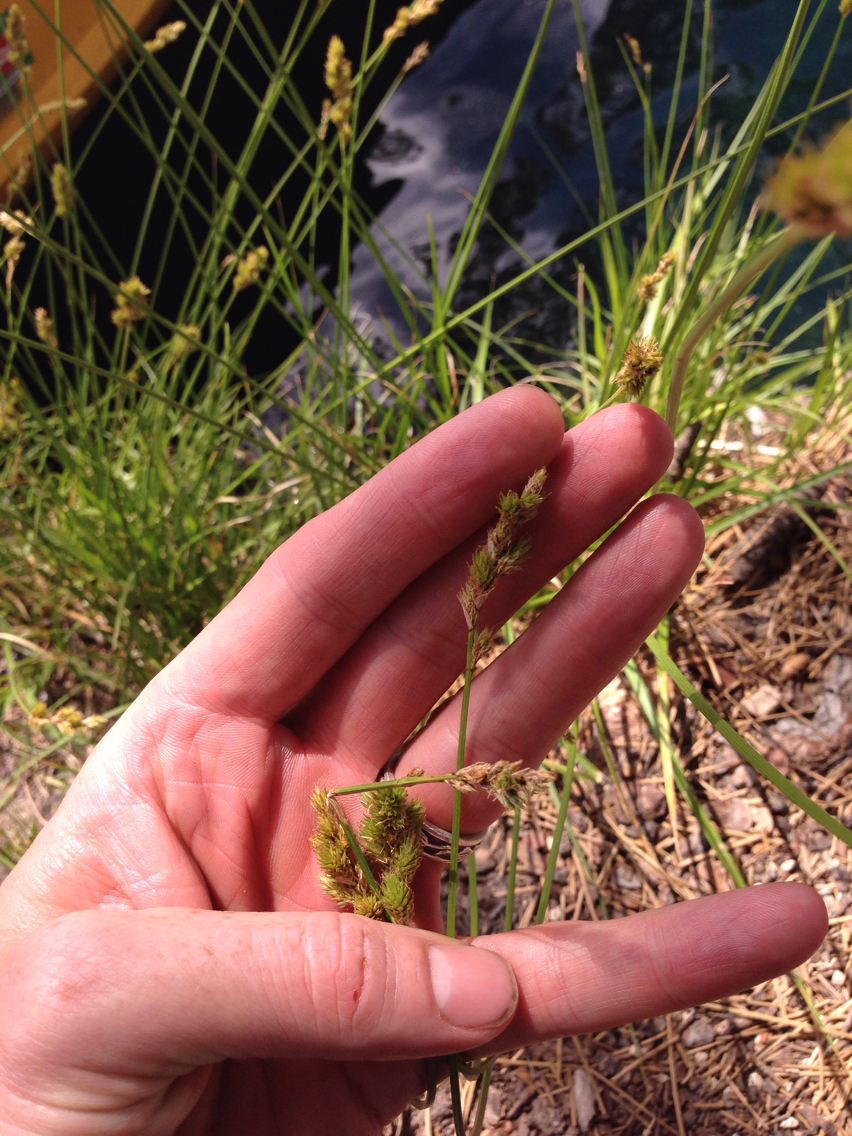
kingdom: Plantae
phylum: Tracheophyta
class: Liliopsida
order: Poales
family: Cyperaceae
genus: Carex
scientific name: Carex fracta
